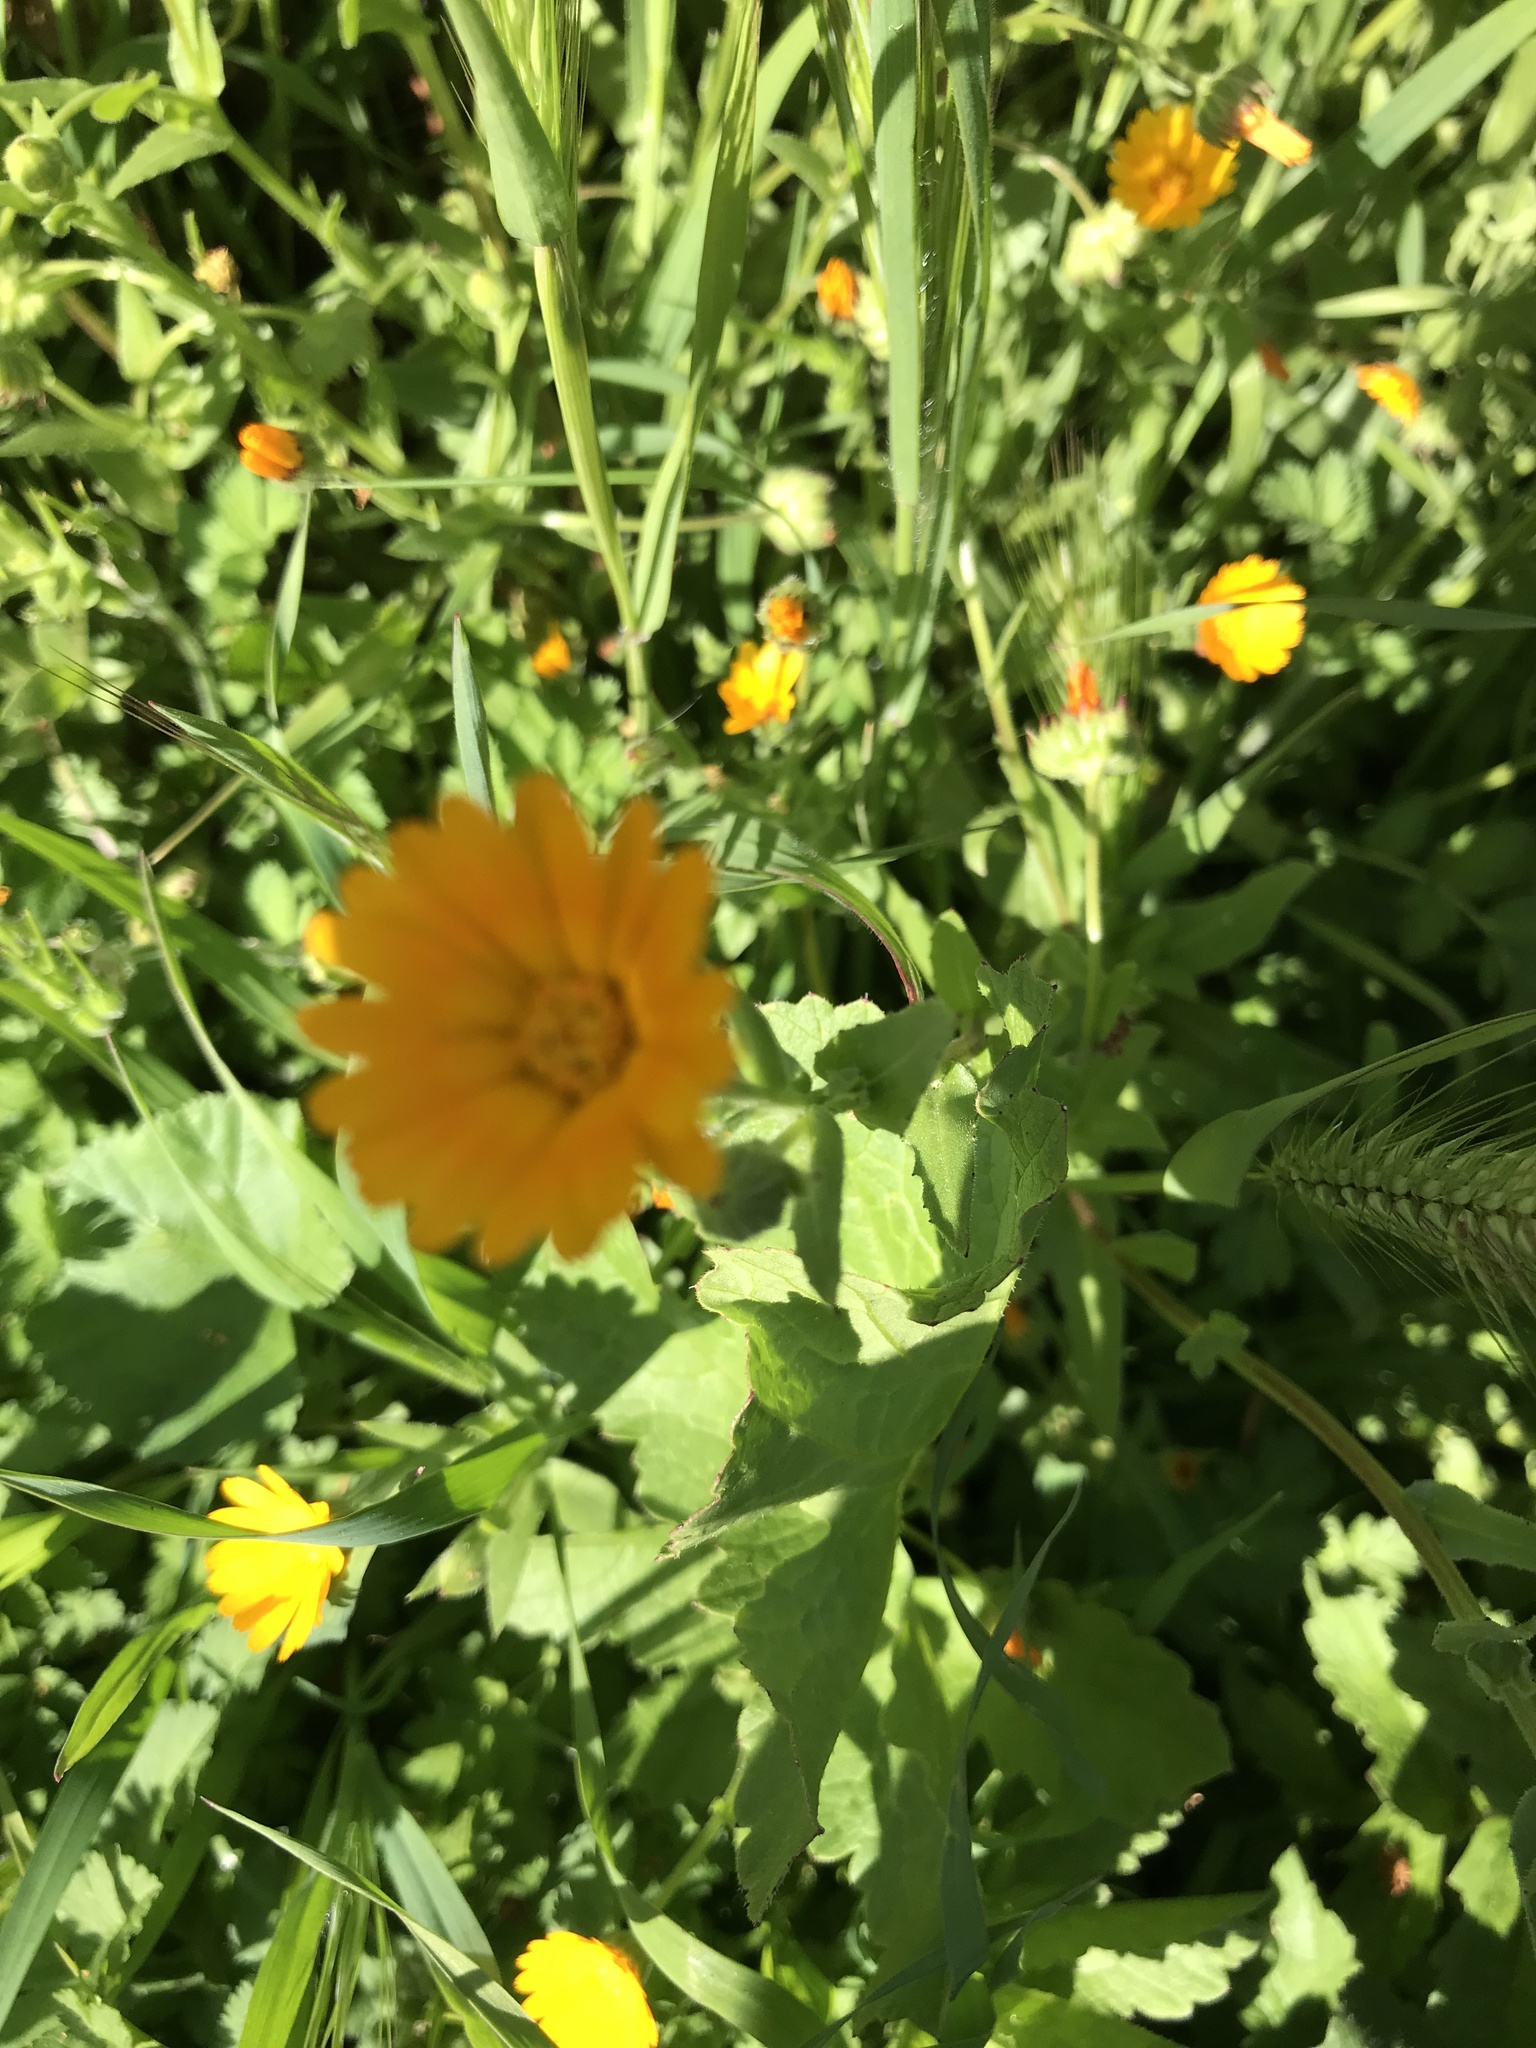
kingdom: Plantae
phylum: Tracheophyta
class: Magnoliopsida
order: Asterales
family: Asteraceae
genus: Calendula
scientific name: Calendula arvensis
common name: Field marigold
